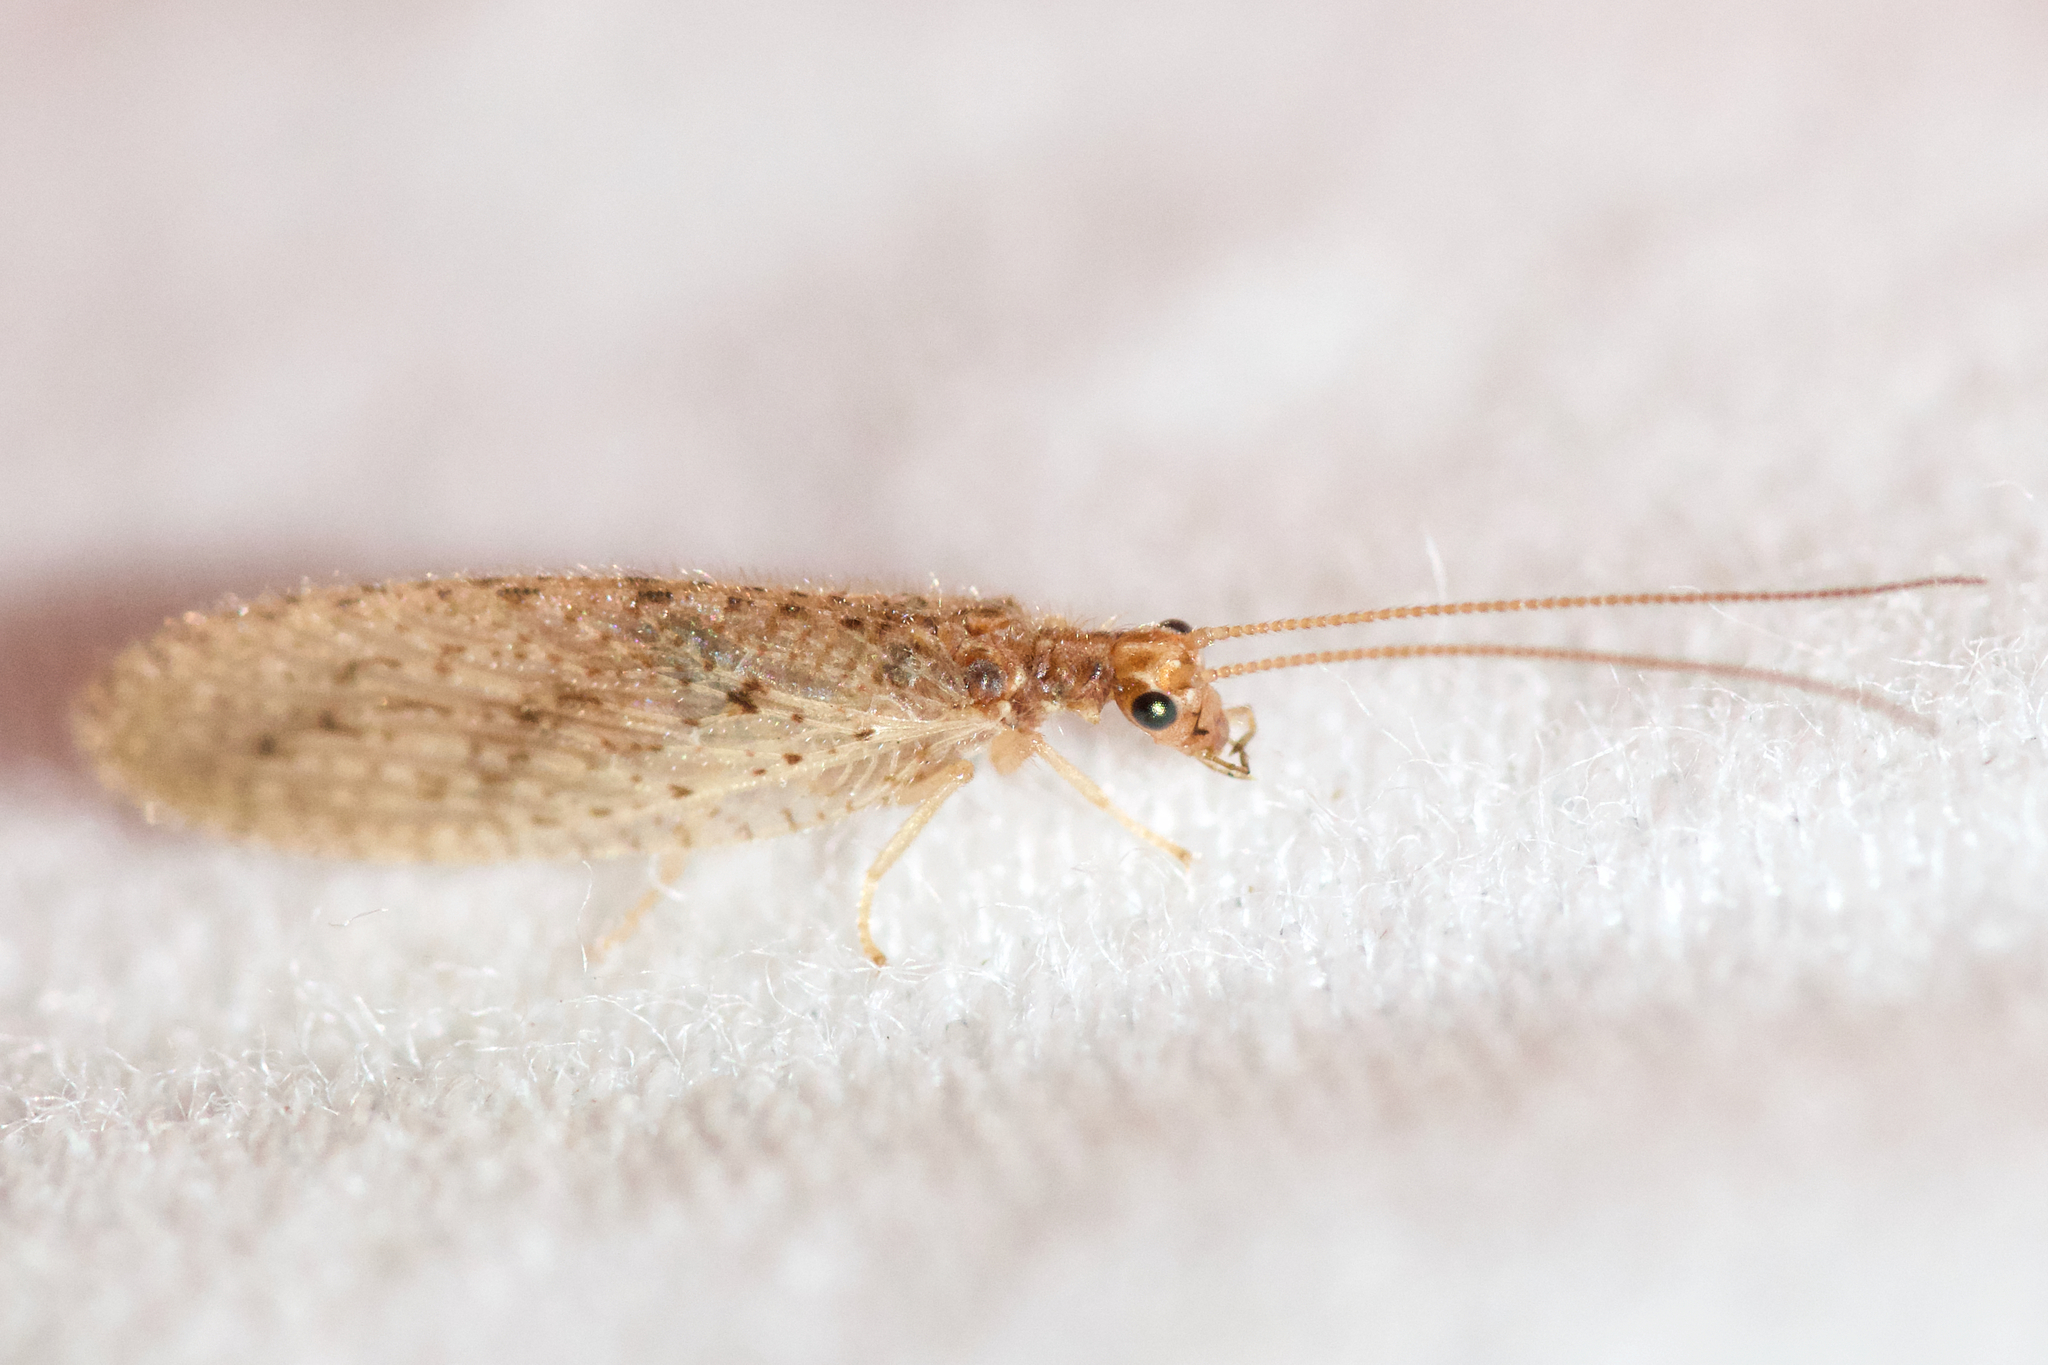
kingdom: Animalia
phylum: Arthropoda
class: Insecta
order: Neuroptera
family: Hemerobiidae
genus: Micromus
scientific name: Micromus subanticus
